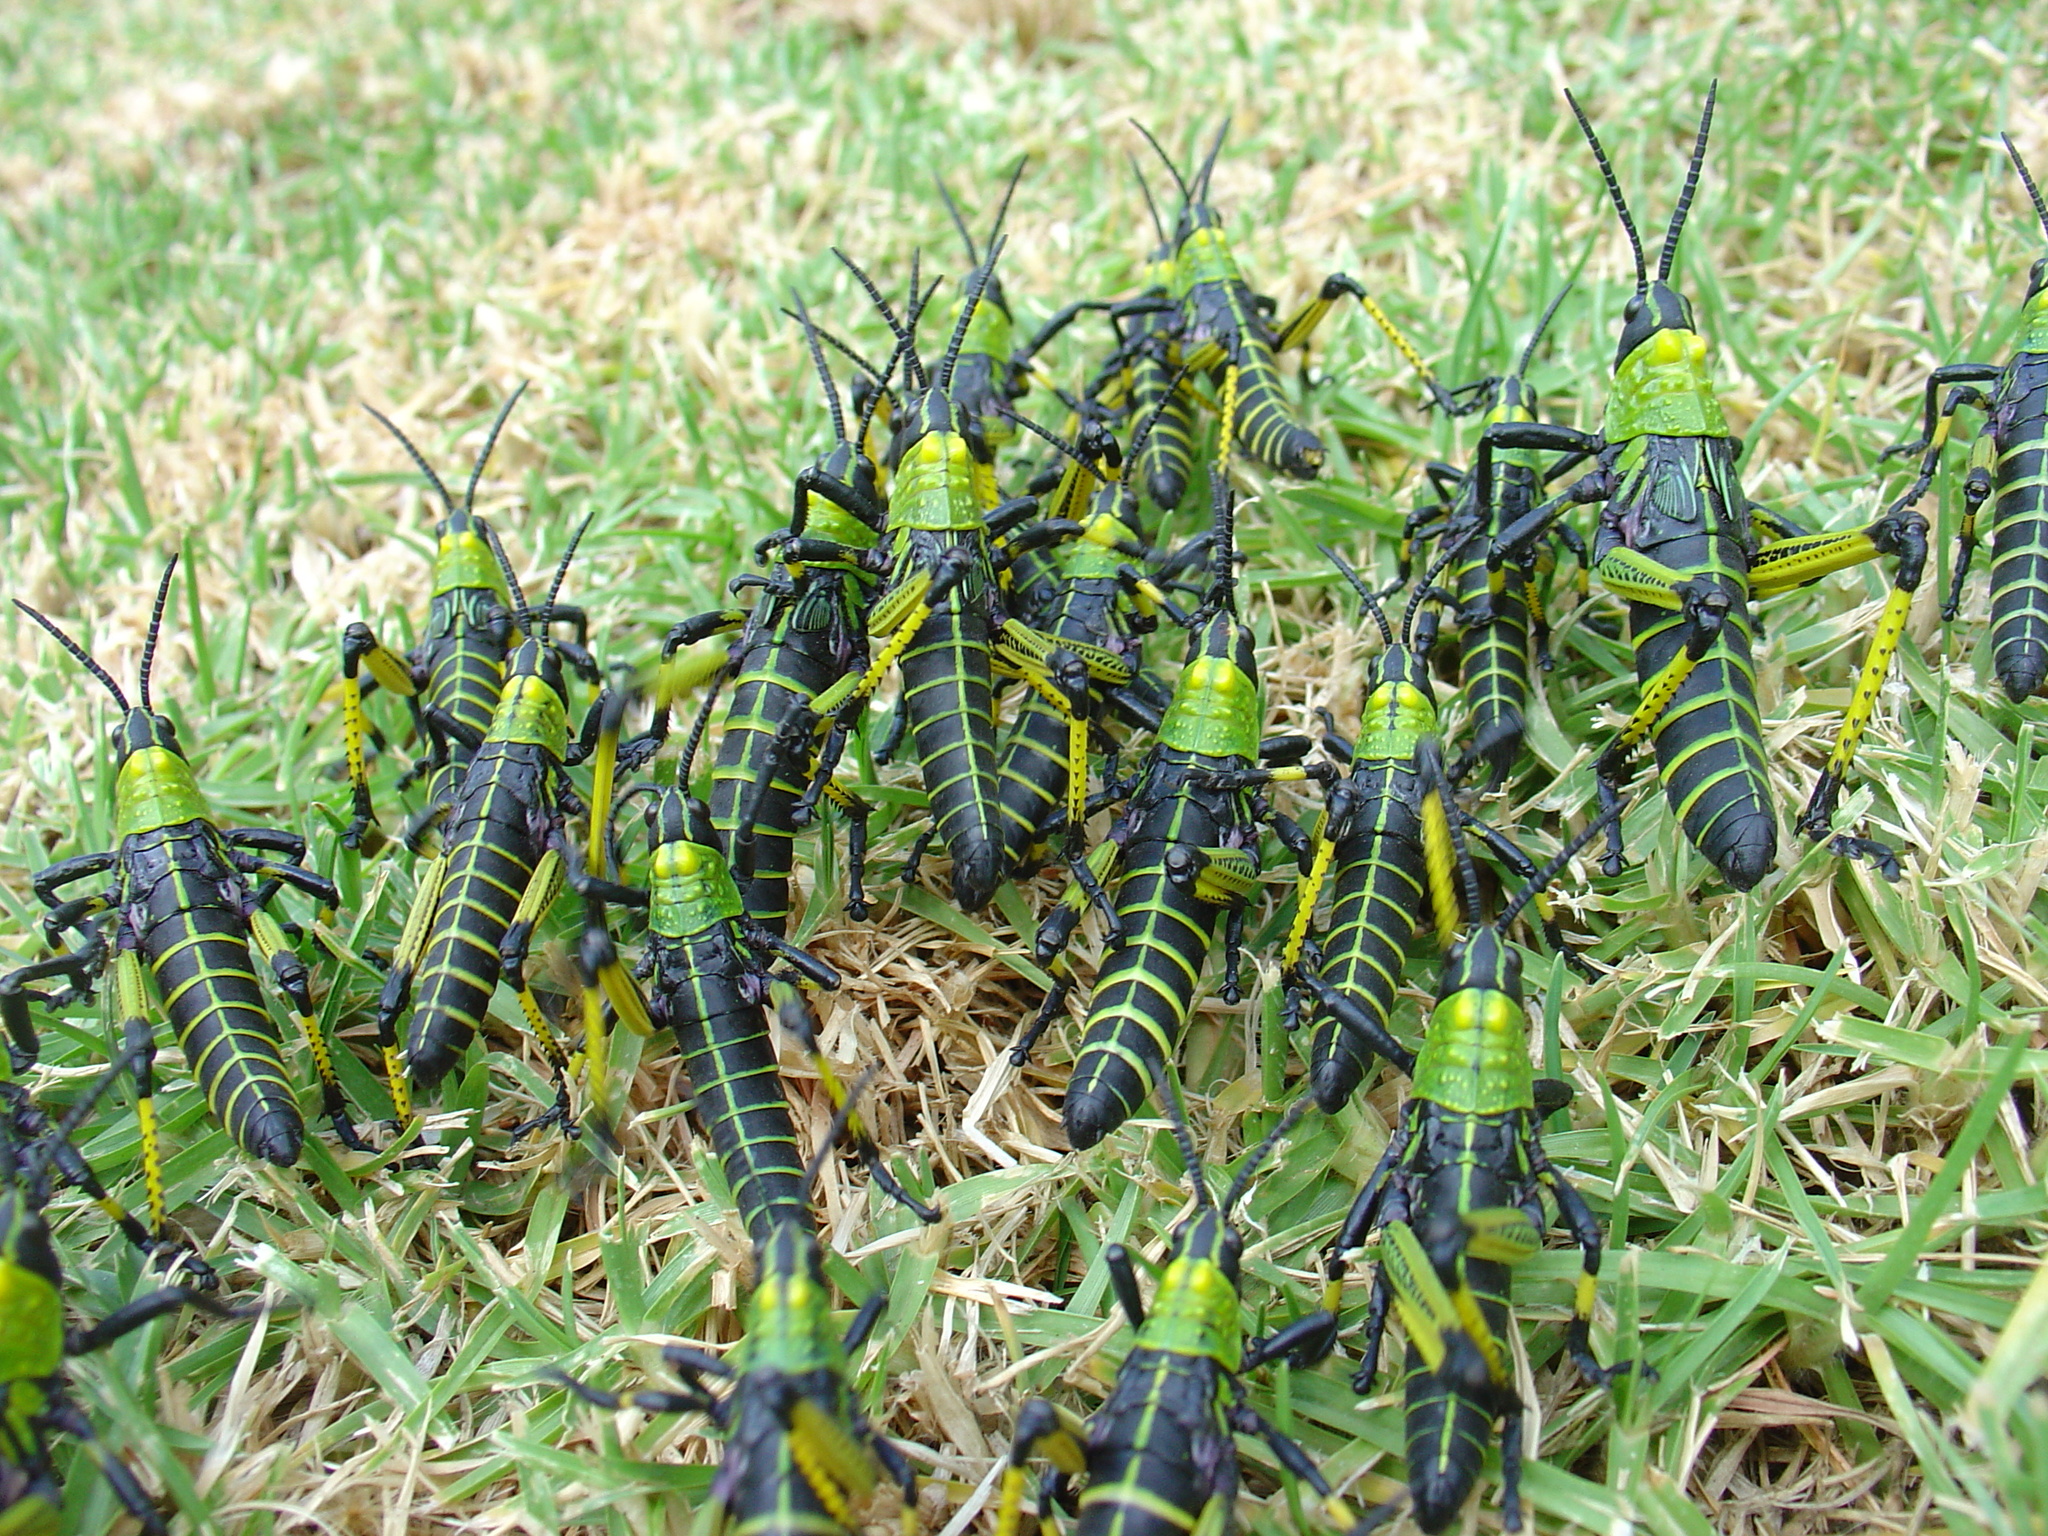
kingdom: Animalia
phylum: Arthropoda
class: Insecta
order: Orthoptera
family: Pyrgomorphidae
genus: Phymateus
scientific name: Phymateus viridipes
